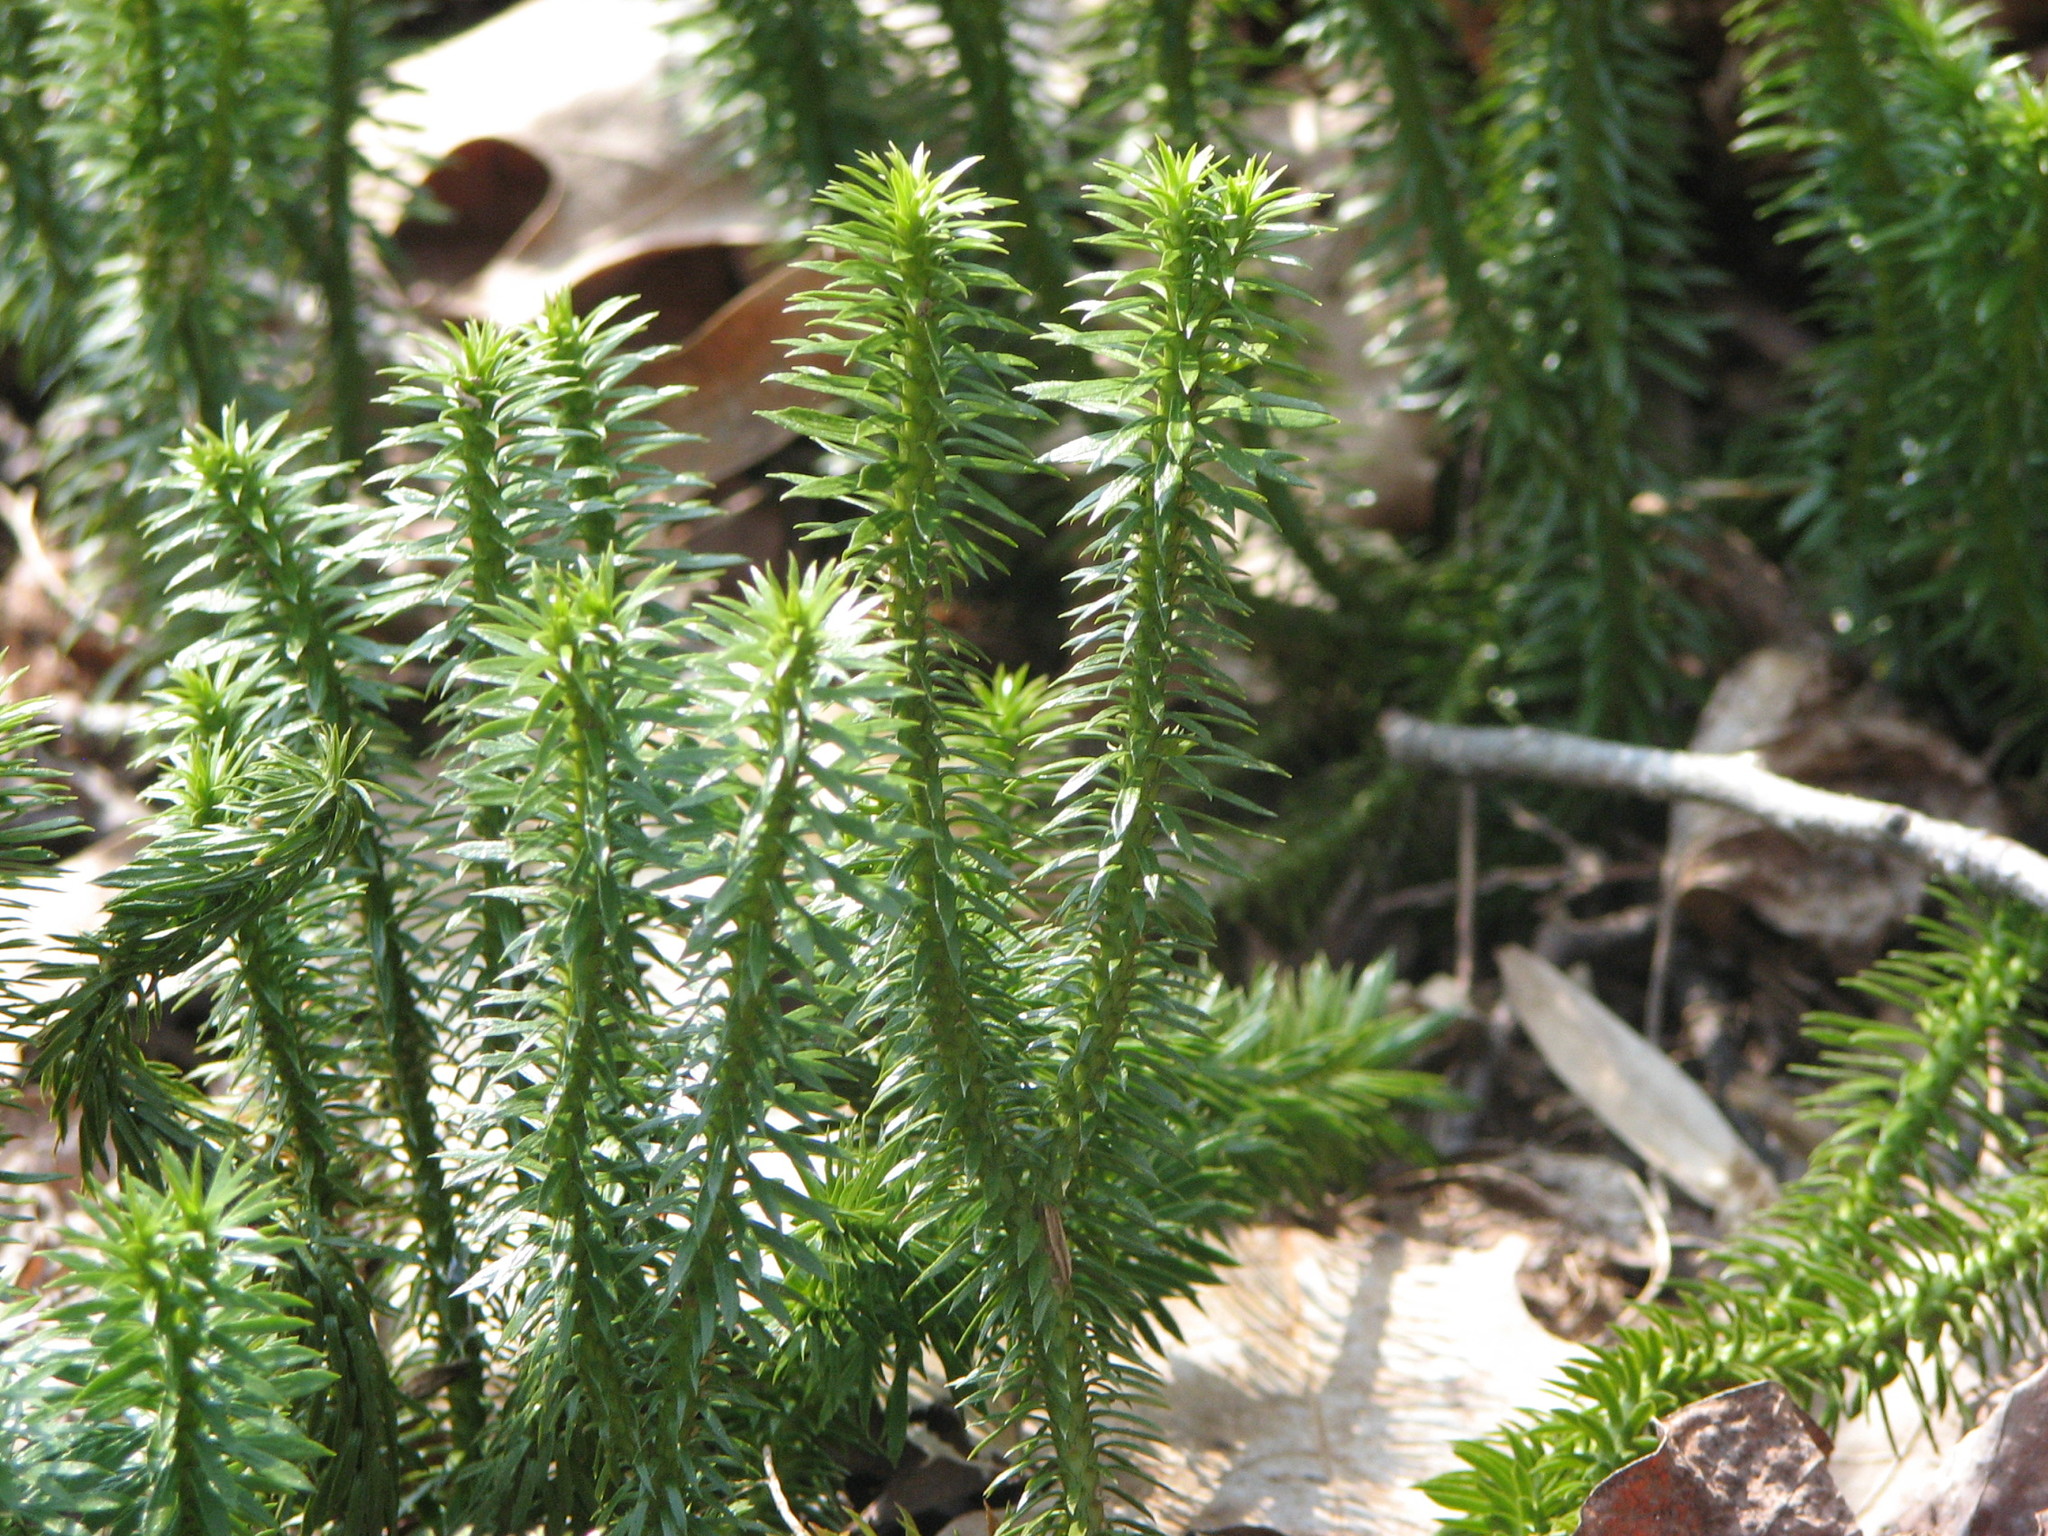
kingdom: Plantae
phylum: Tracheophyta
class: Lycopodiopsida
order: Lycopodiales
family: Lycopodiaceae
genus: Huperzia
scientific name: Huperzia lucidula
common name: Shining clubmoss
